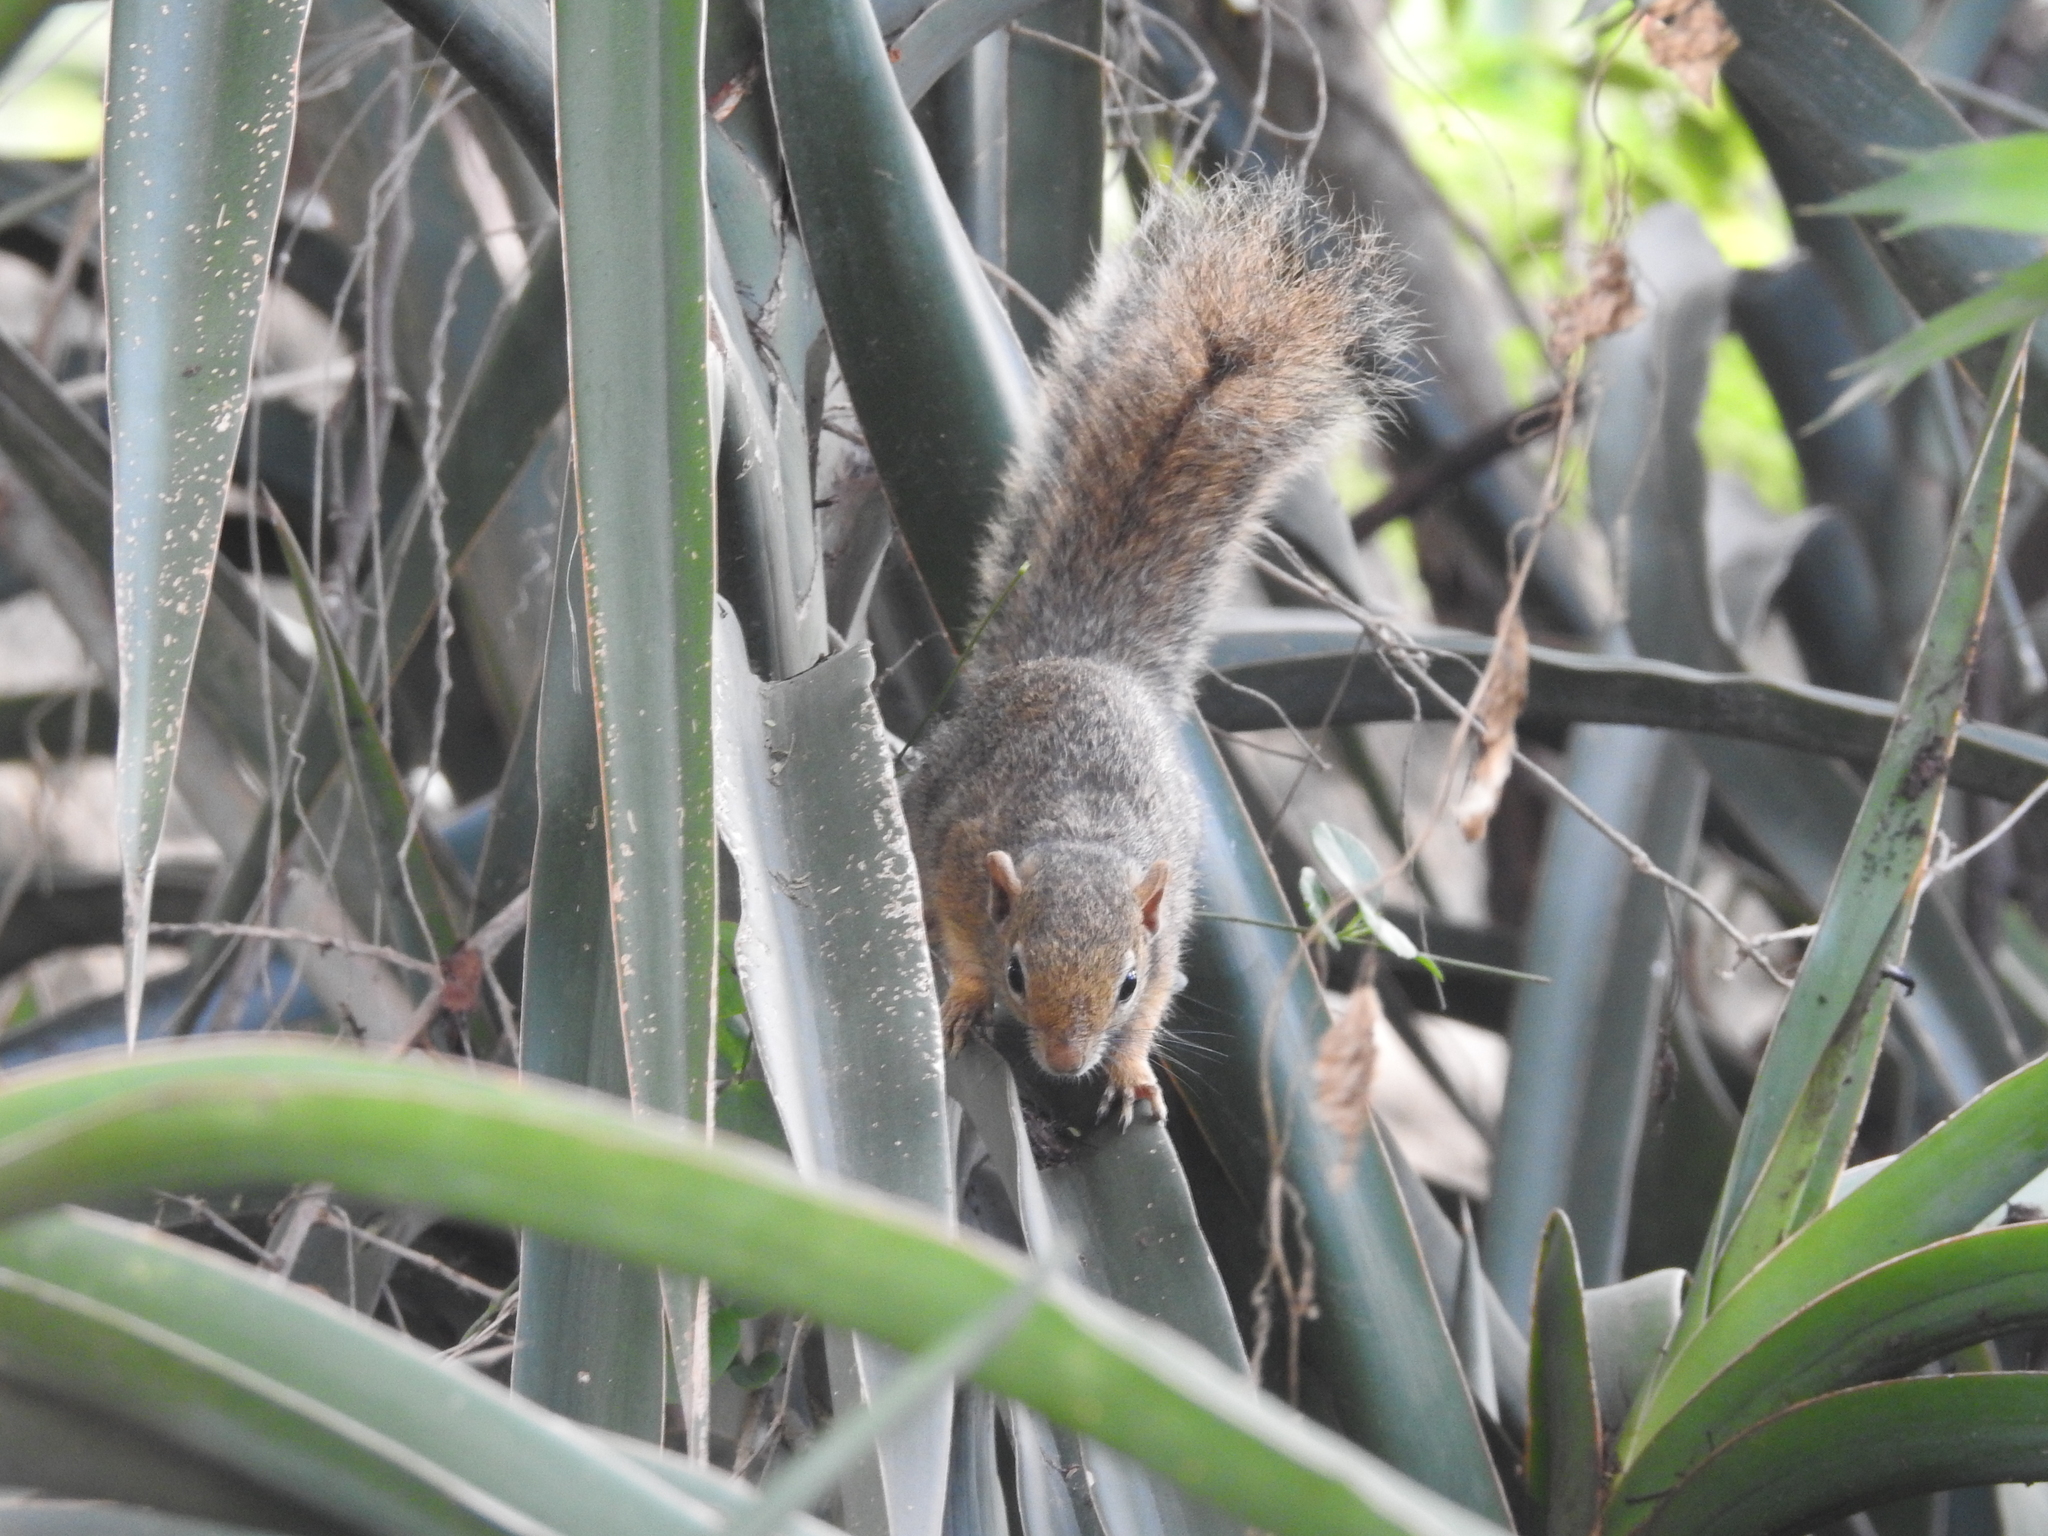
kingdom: Animalia
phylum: Chordata
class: Mammalia
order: Rodentia
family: Sciuridae
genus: Paraxerus
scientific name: Paraxerus ochraceus
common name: Ochre bush squirrel
